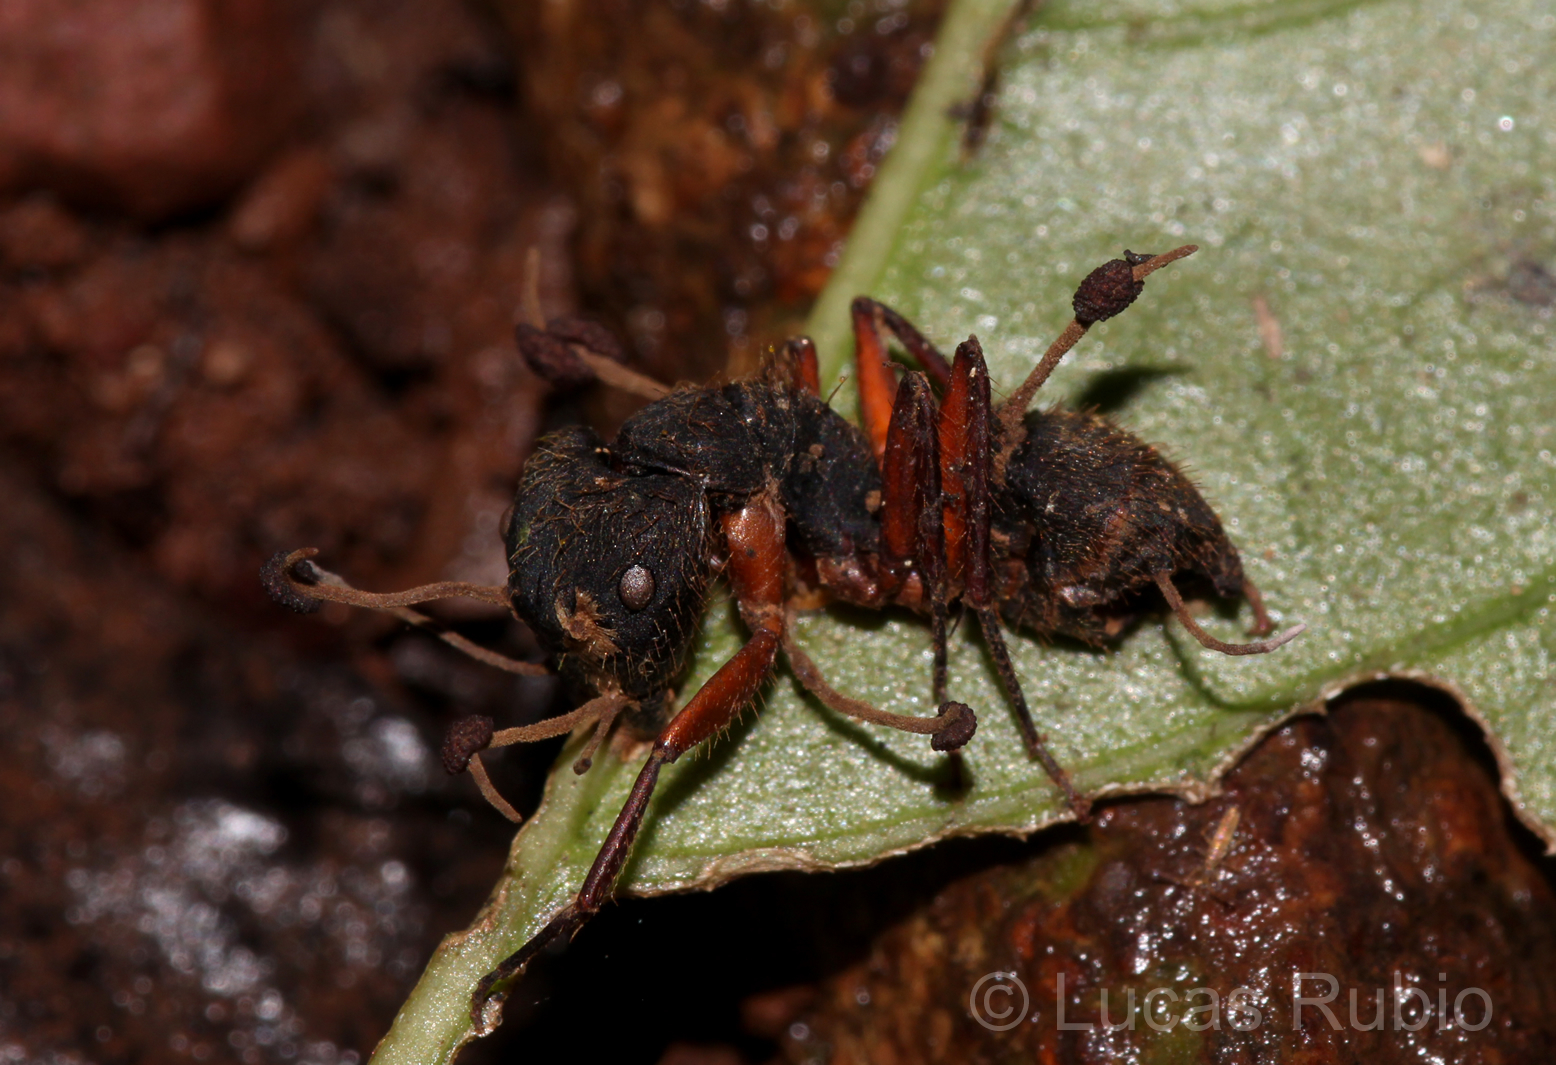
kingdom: Animalia
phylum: Arthropoda
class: Insecta
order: Hymenoptera
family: Formicidae
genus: Camponotus
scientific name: Camponotus rufipes
